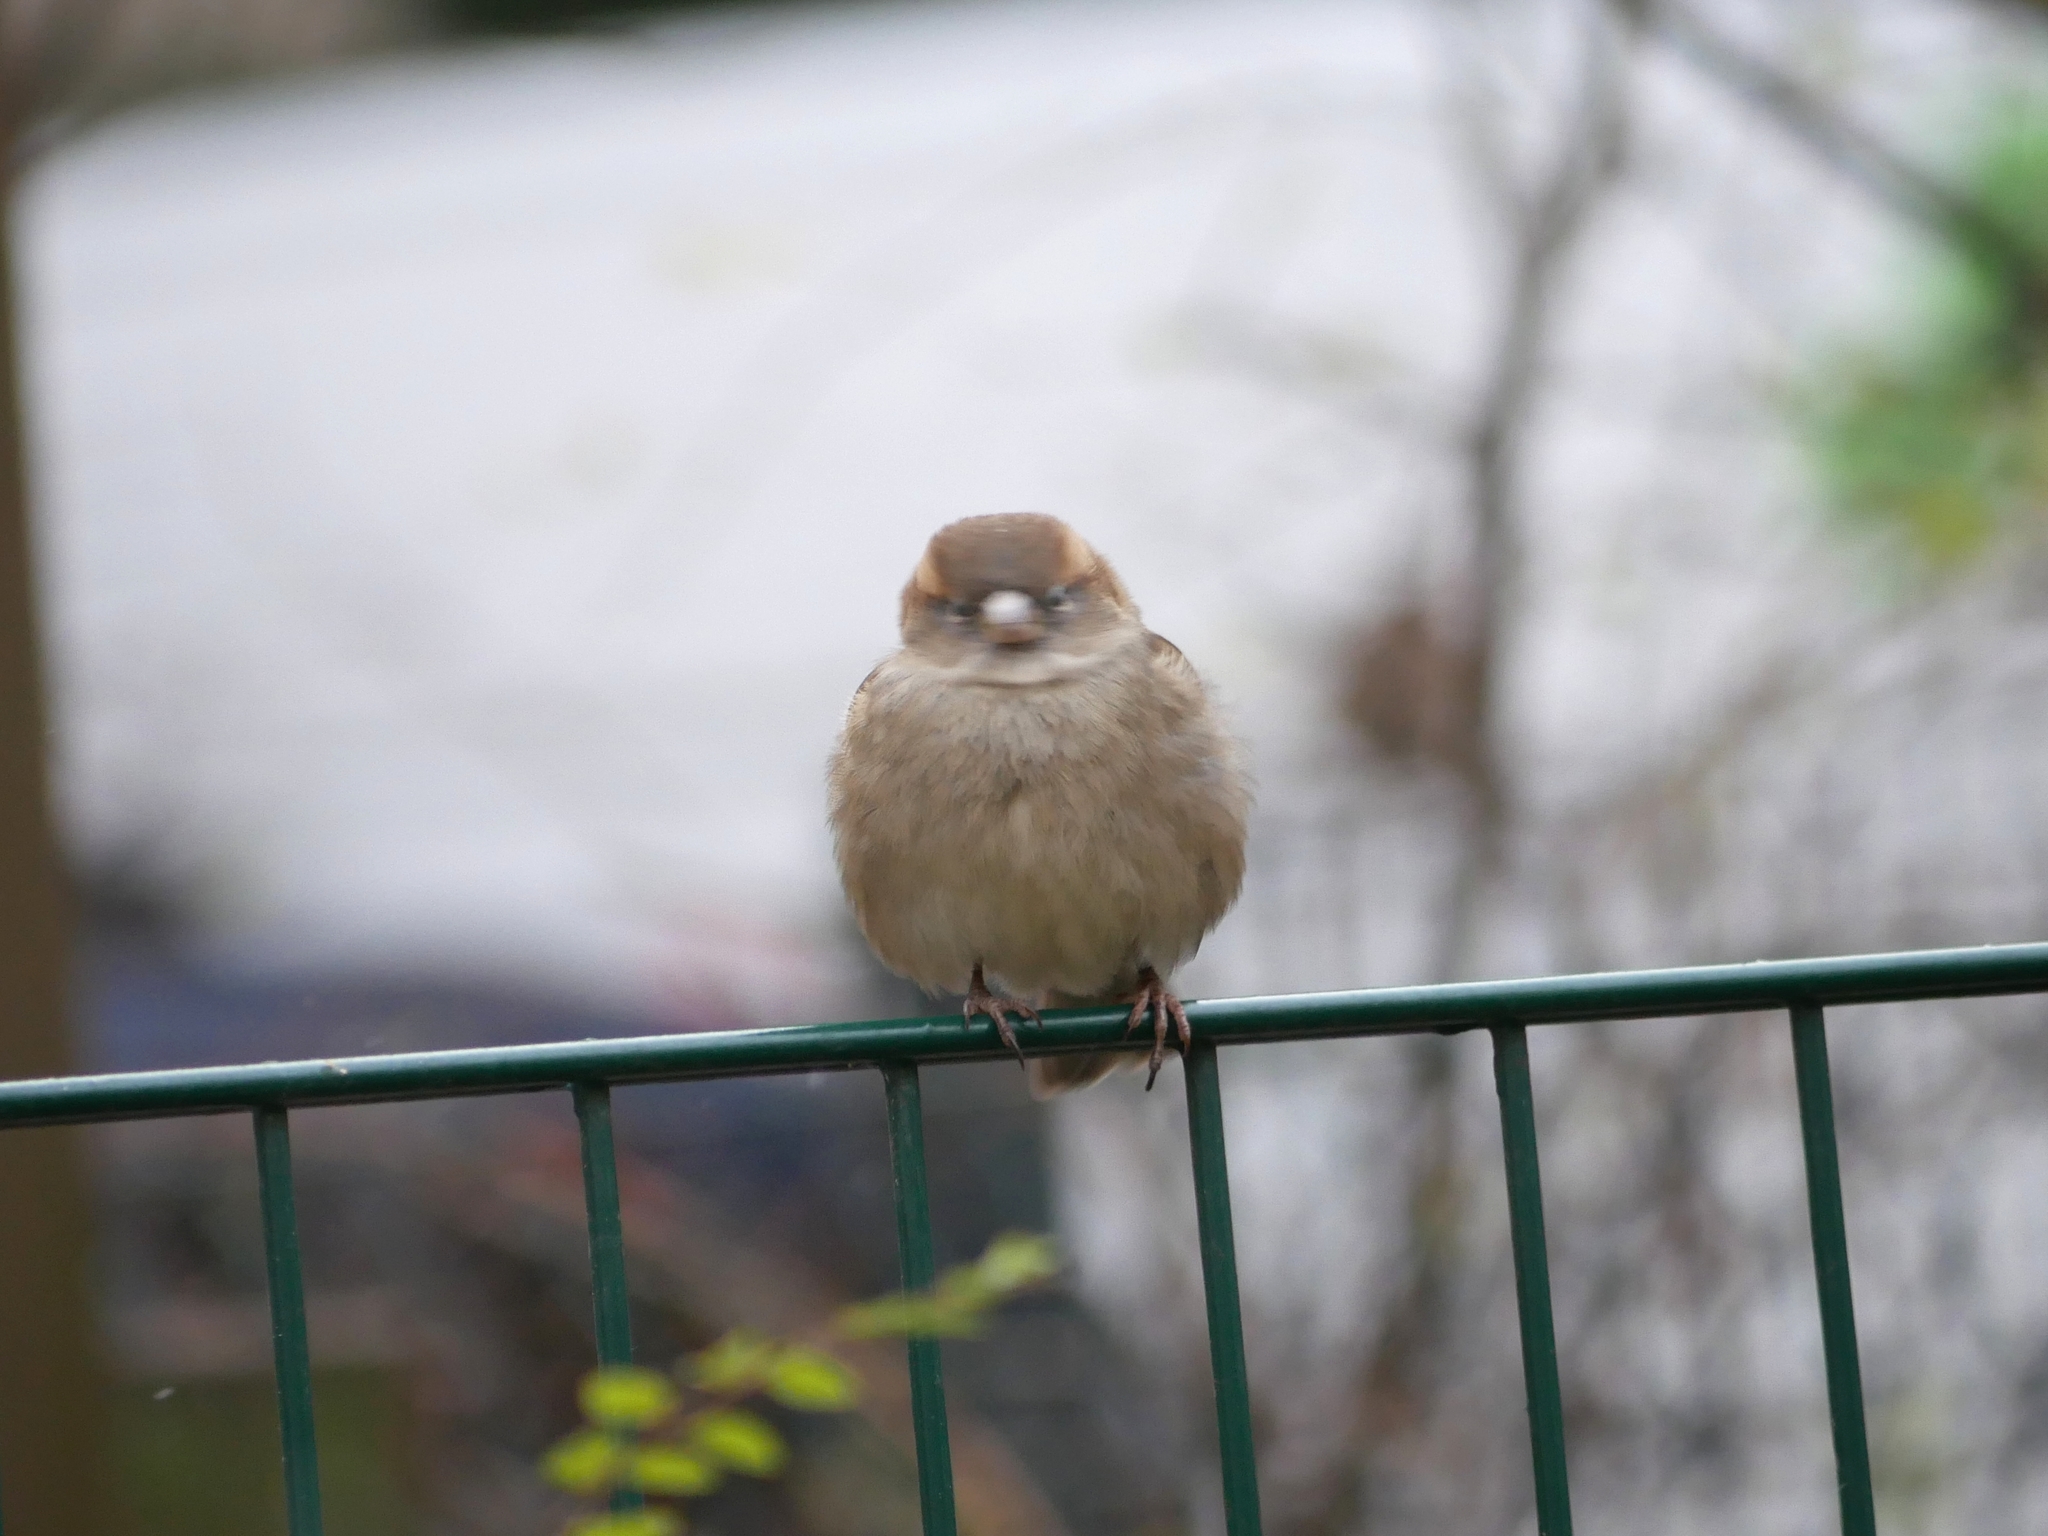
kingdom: Animalia
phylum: Chordata
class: Aves
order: Passeriformes
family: Passeridae
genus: Passer
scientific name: Passer domesticus
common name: House sparrow
